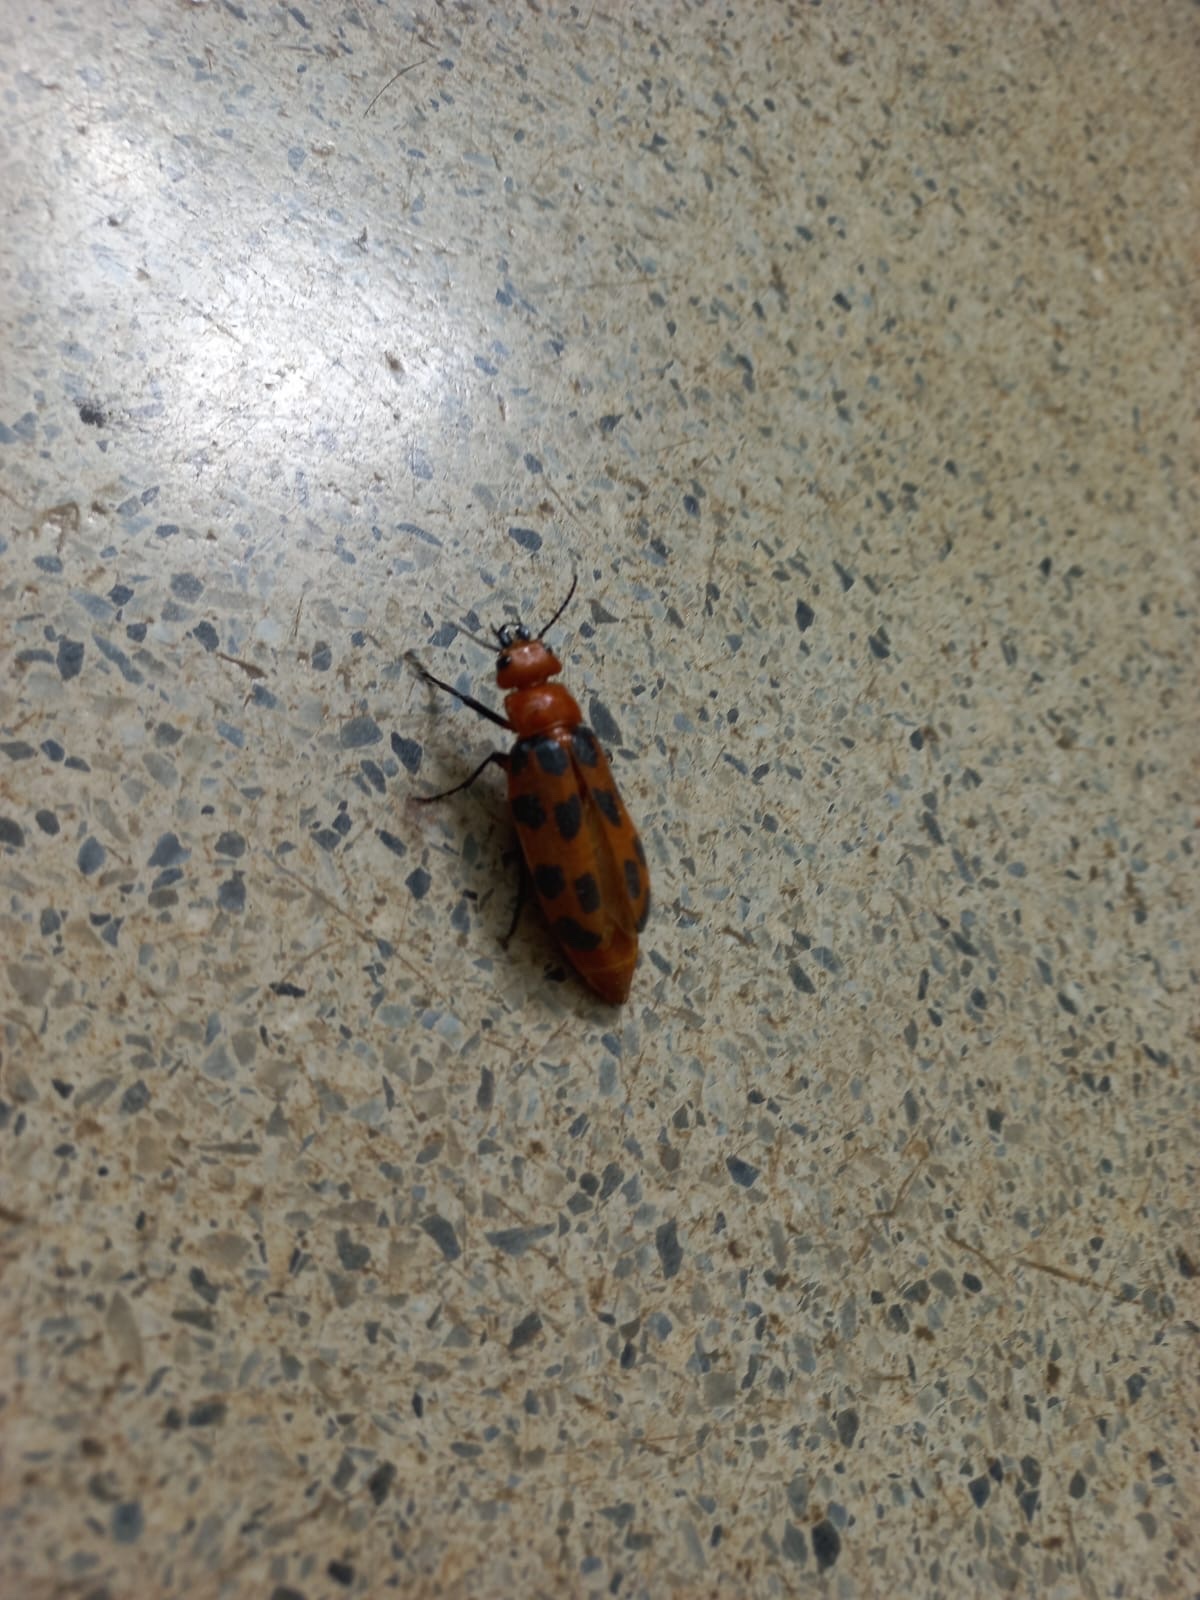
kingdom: Animalia
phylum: Arthropoda
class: Insecta
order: Coleoptera
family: Meloidae
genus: Cissites
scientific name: Cissites maculata
